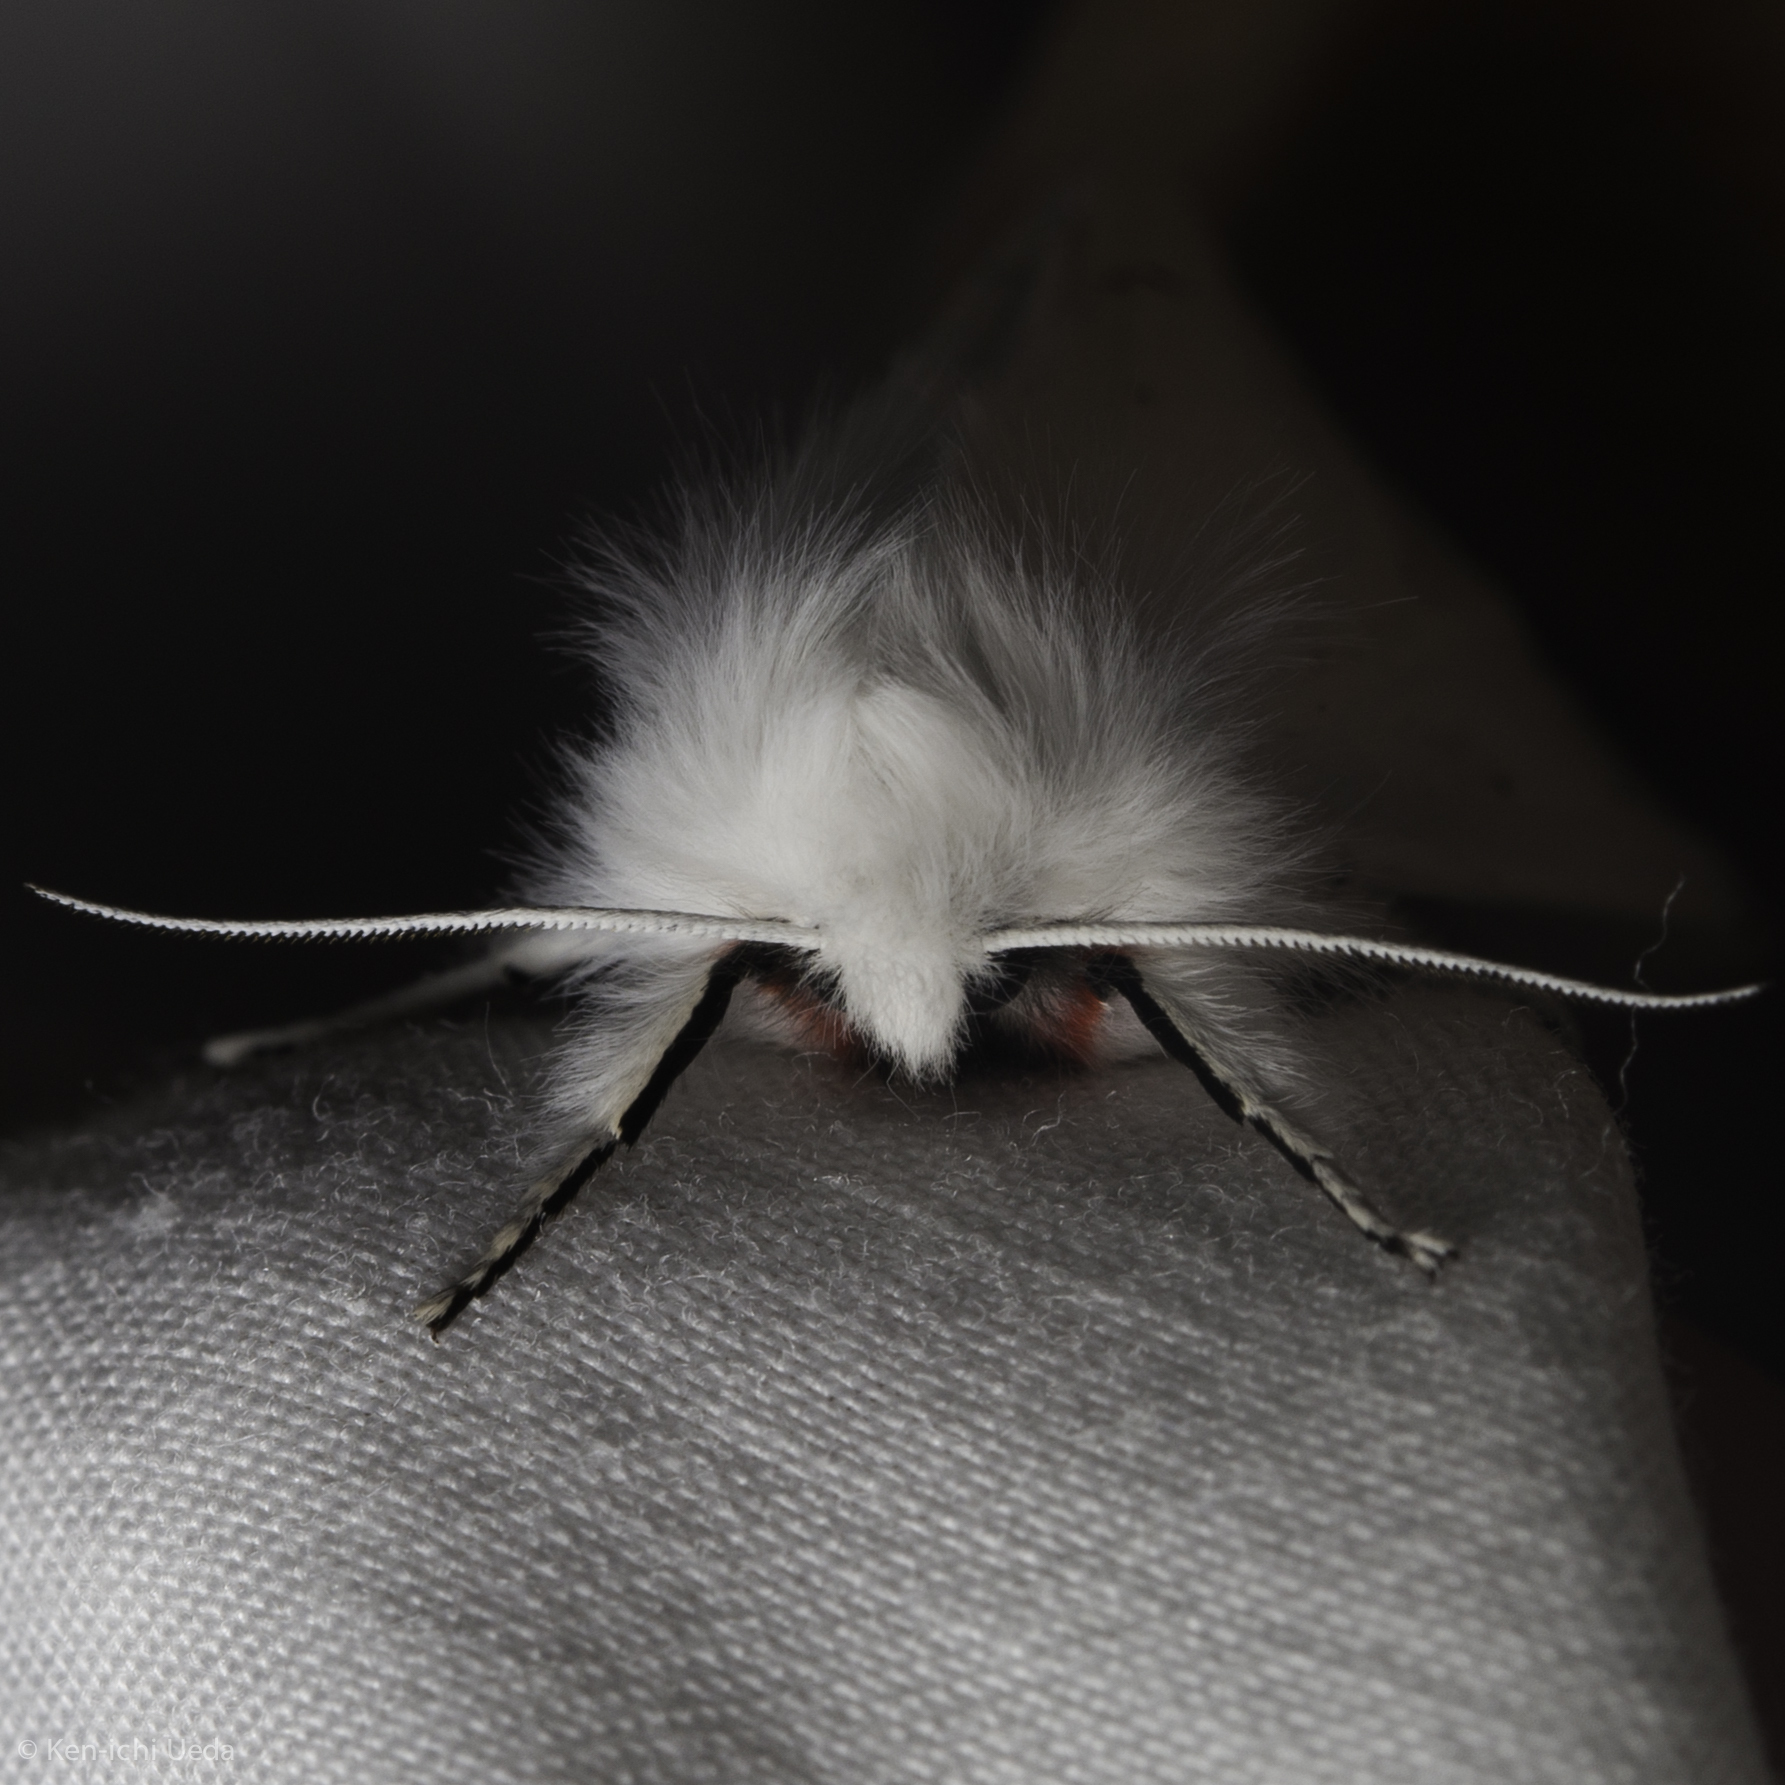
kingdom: Animalia
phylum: Arthropoda
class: Insecta
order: Lepidoptera
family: Erebidae
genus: Spilosoma
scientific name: Spilosoma vestalis
